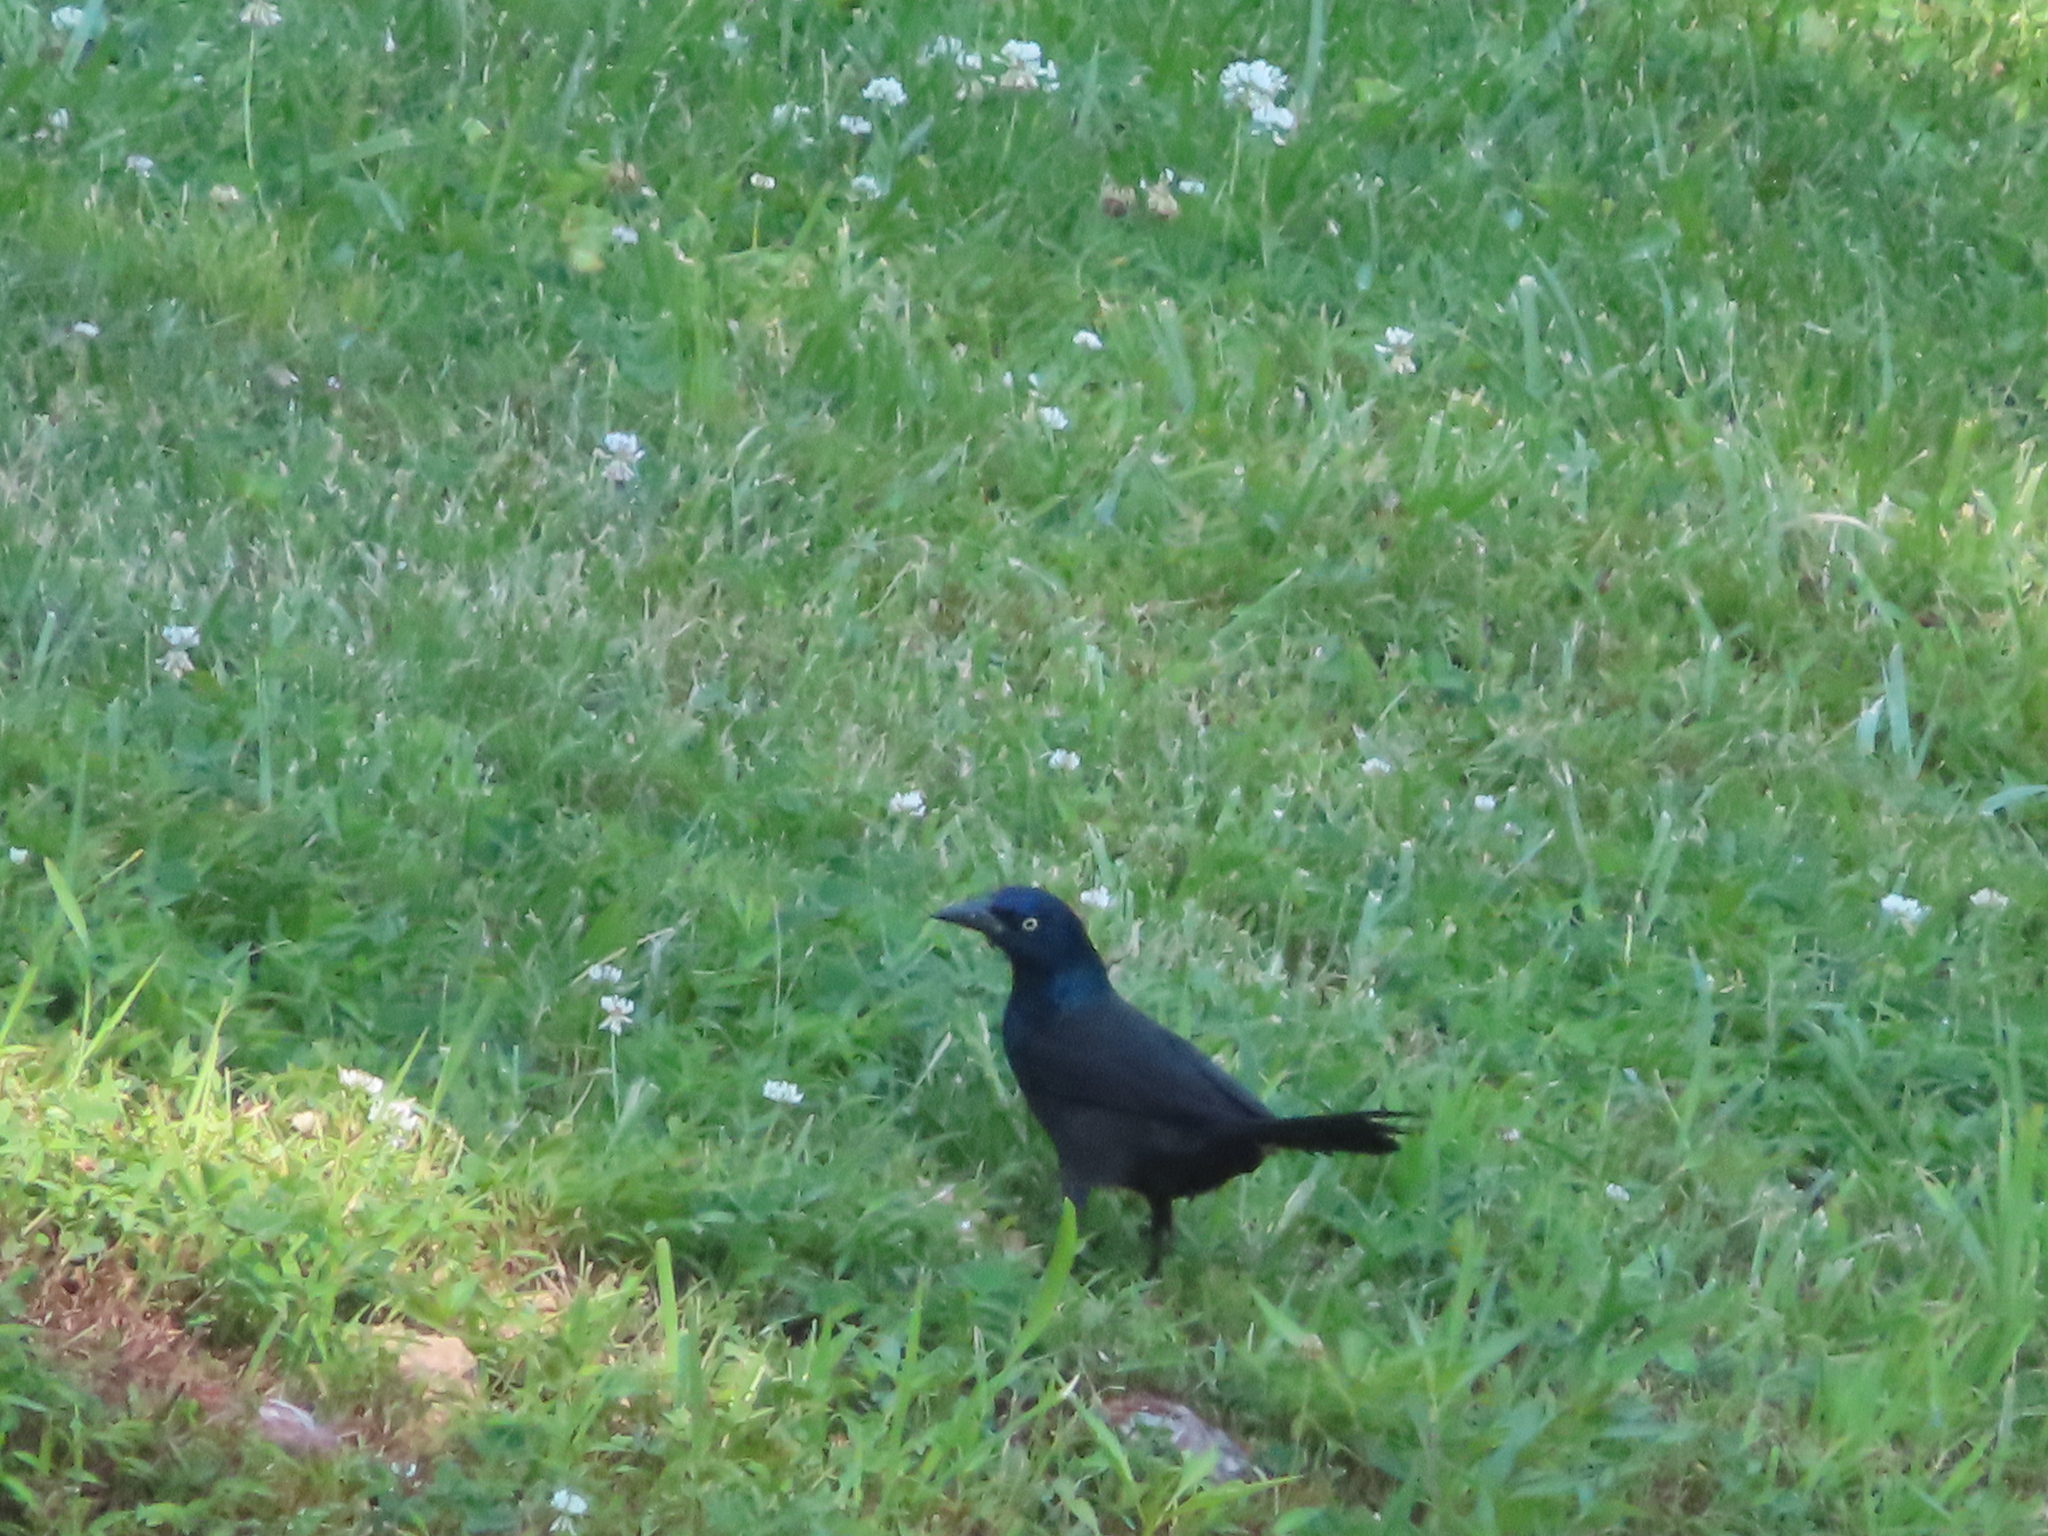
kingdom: Animalia
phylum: Chordata
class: Aves
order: Passeriformes
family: Icteridae
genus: Quiscalus
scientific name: Quiscalus quiscula
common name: Common grackle
